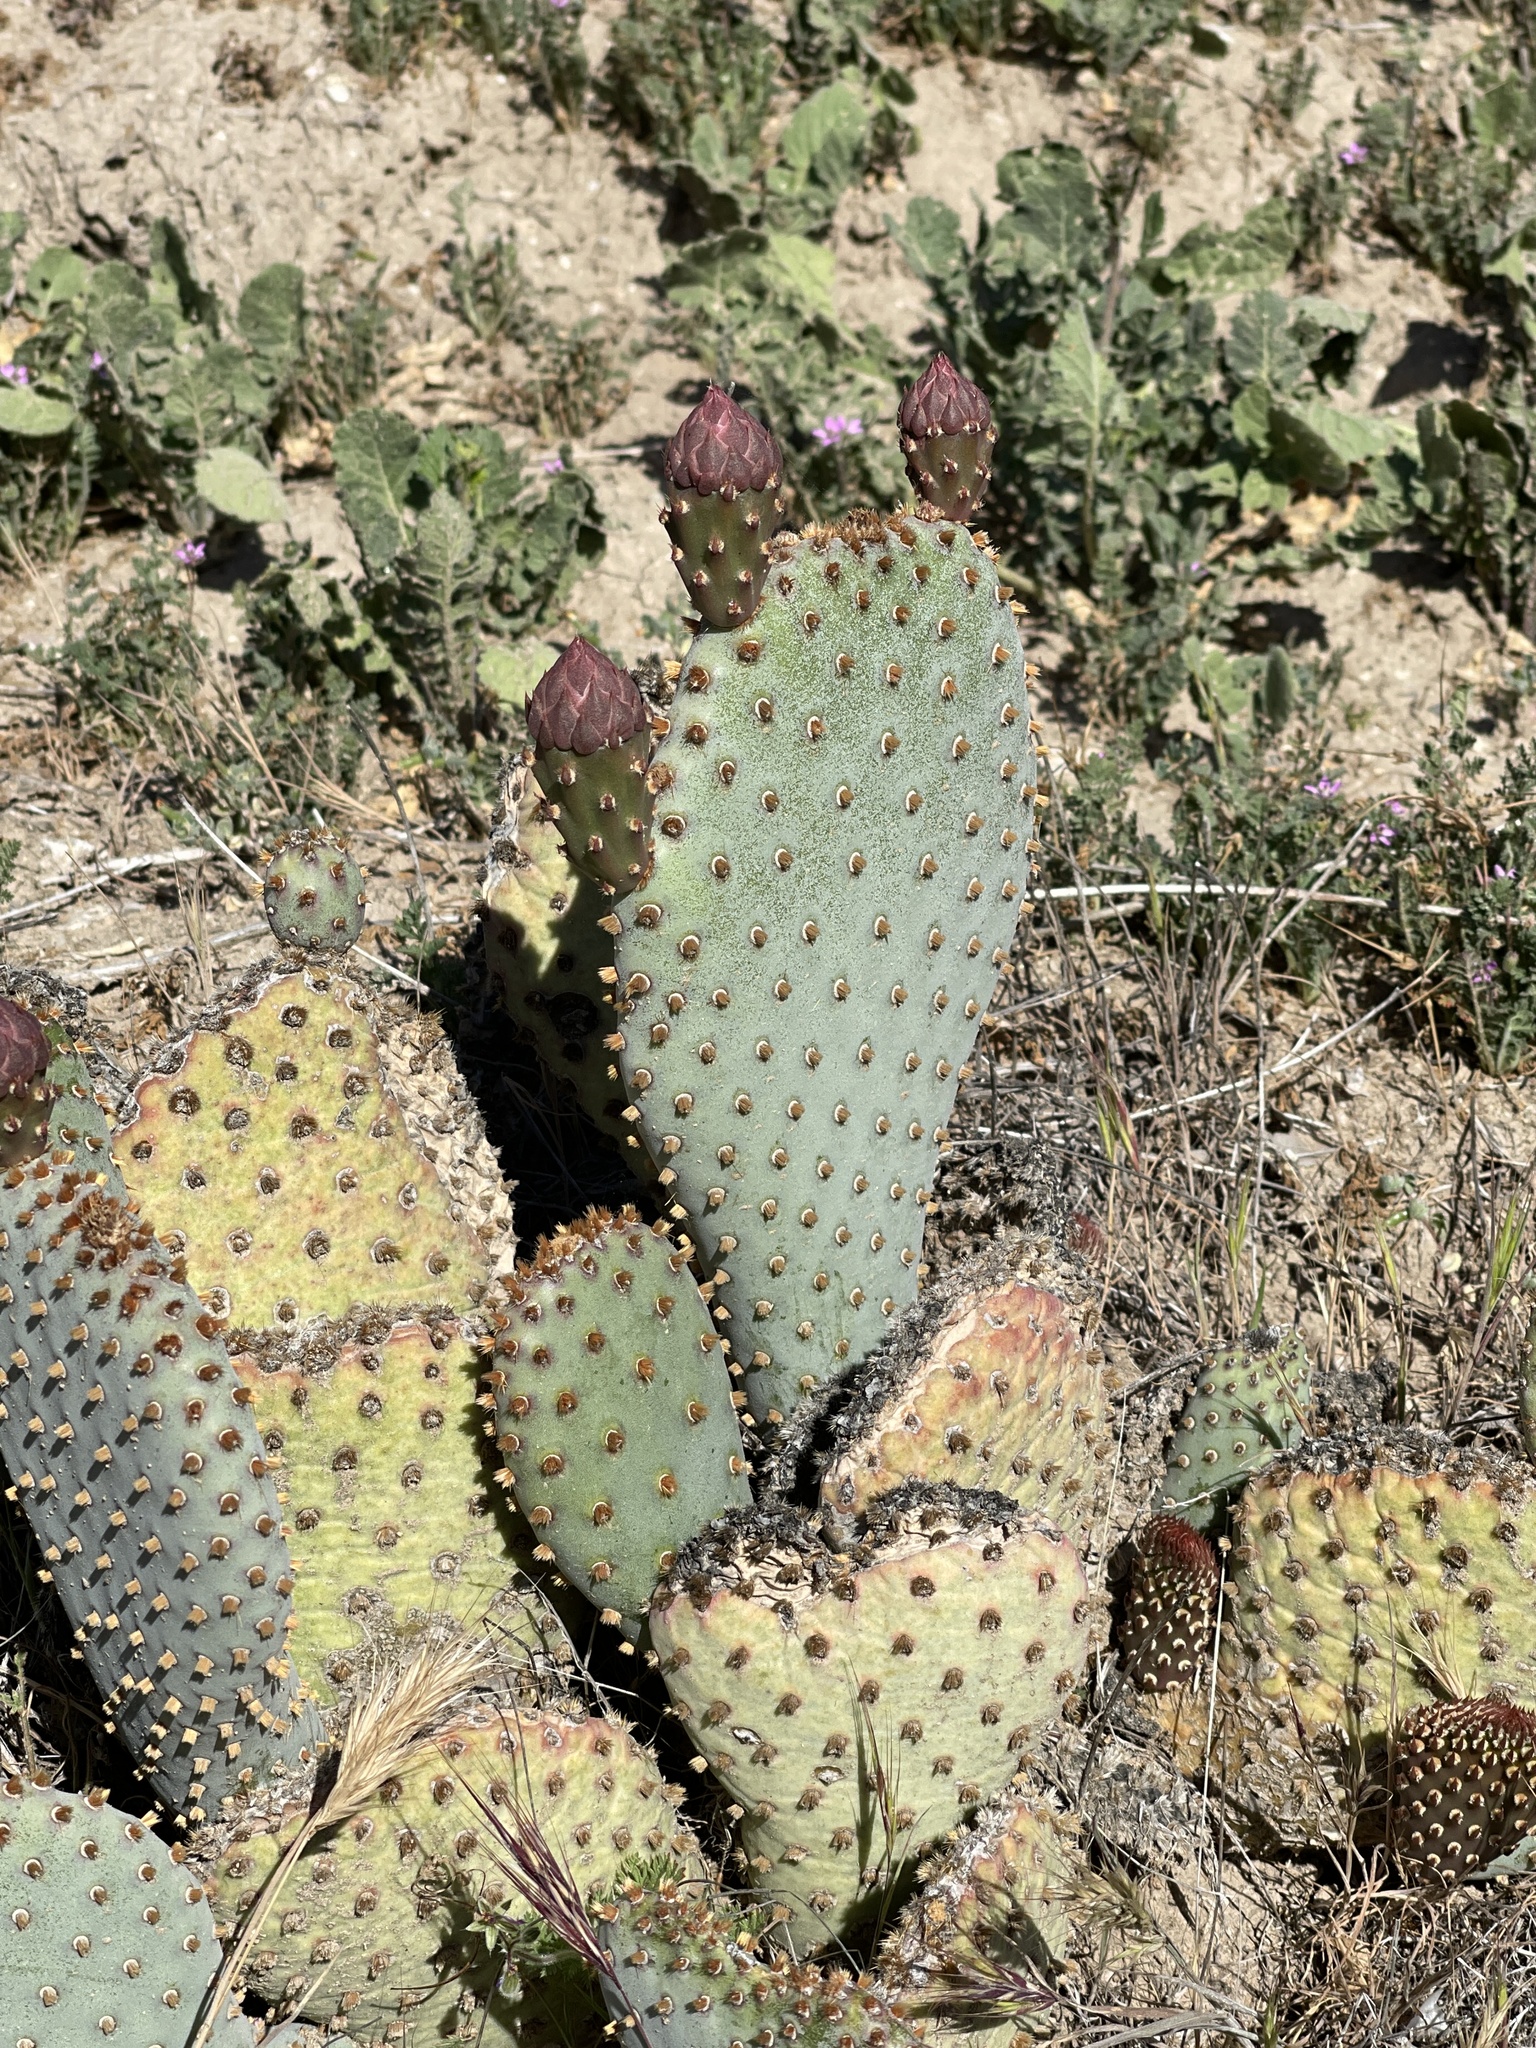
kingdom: Plantae
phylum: Tracheophyta
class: Magnoliopsida
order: Caryophyllales
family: Cactaceae
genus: Opuntia
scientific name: Opuntia basilaris
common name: Beavertail prickly-pear
